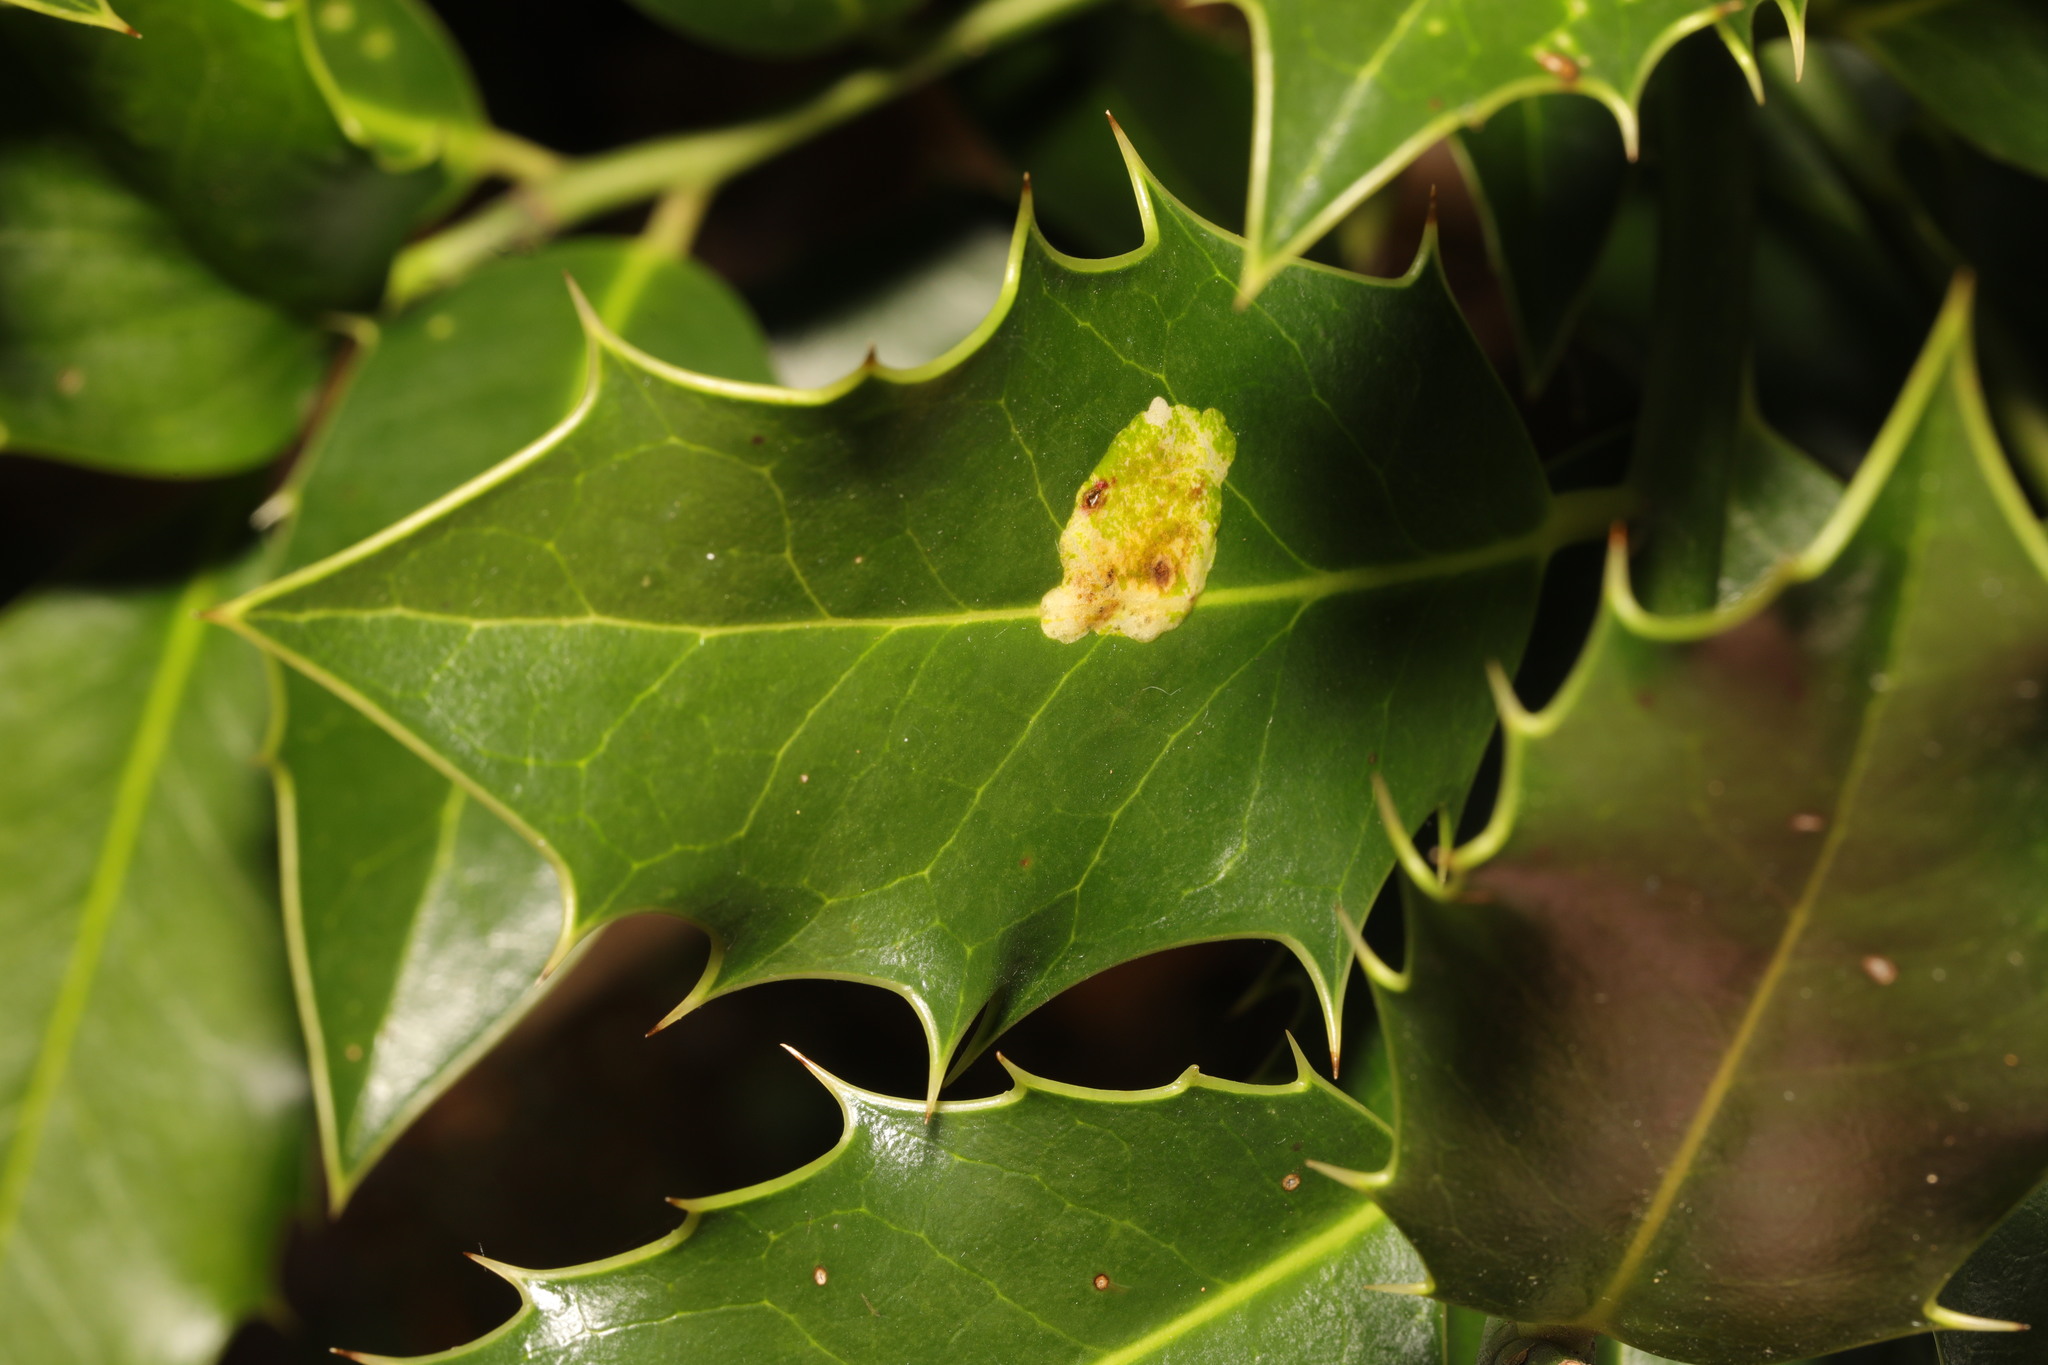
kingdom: Animalia
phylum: Arthropoda
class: Insecta
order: Diptera
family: Agromyzidae
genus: Phytomyza
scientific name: Phytomyza ilicis
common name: Holly leafminer
